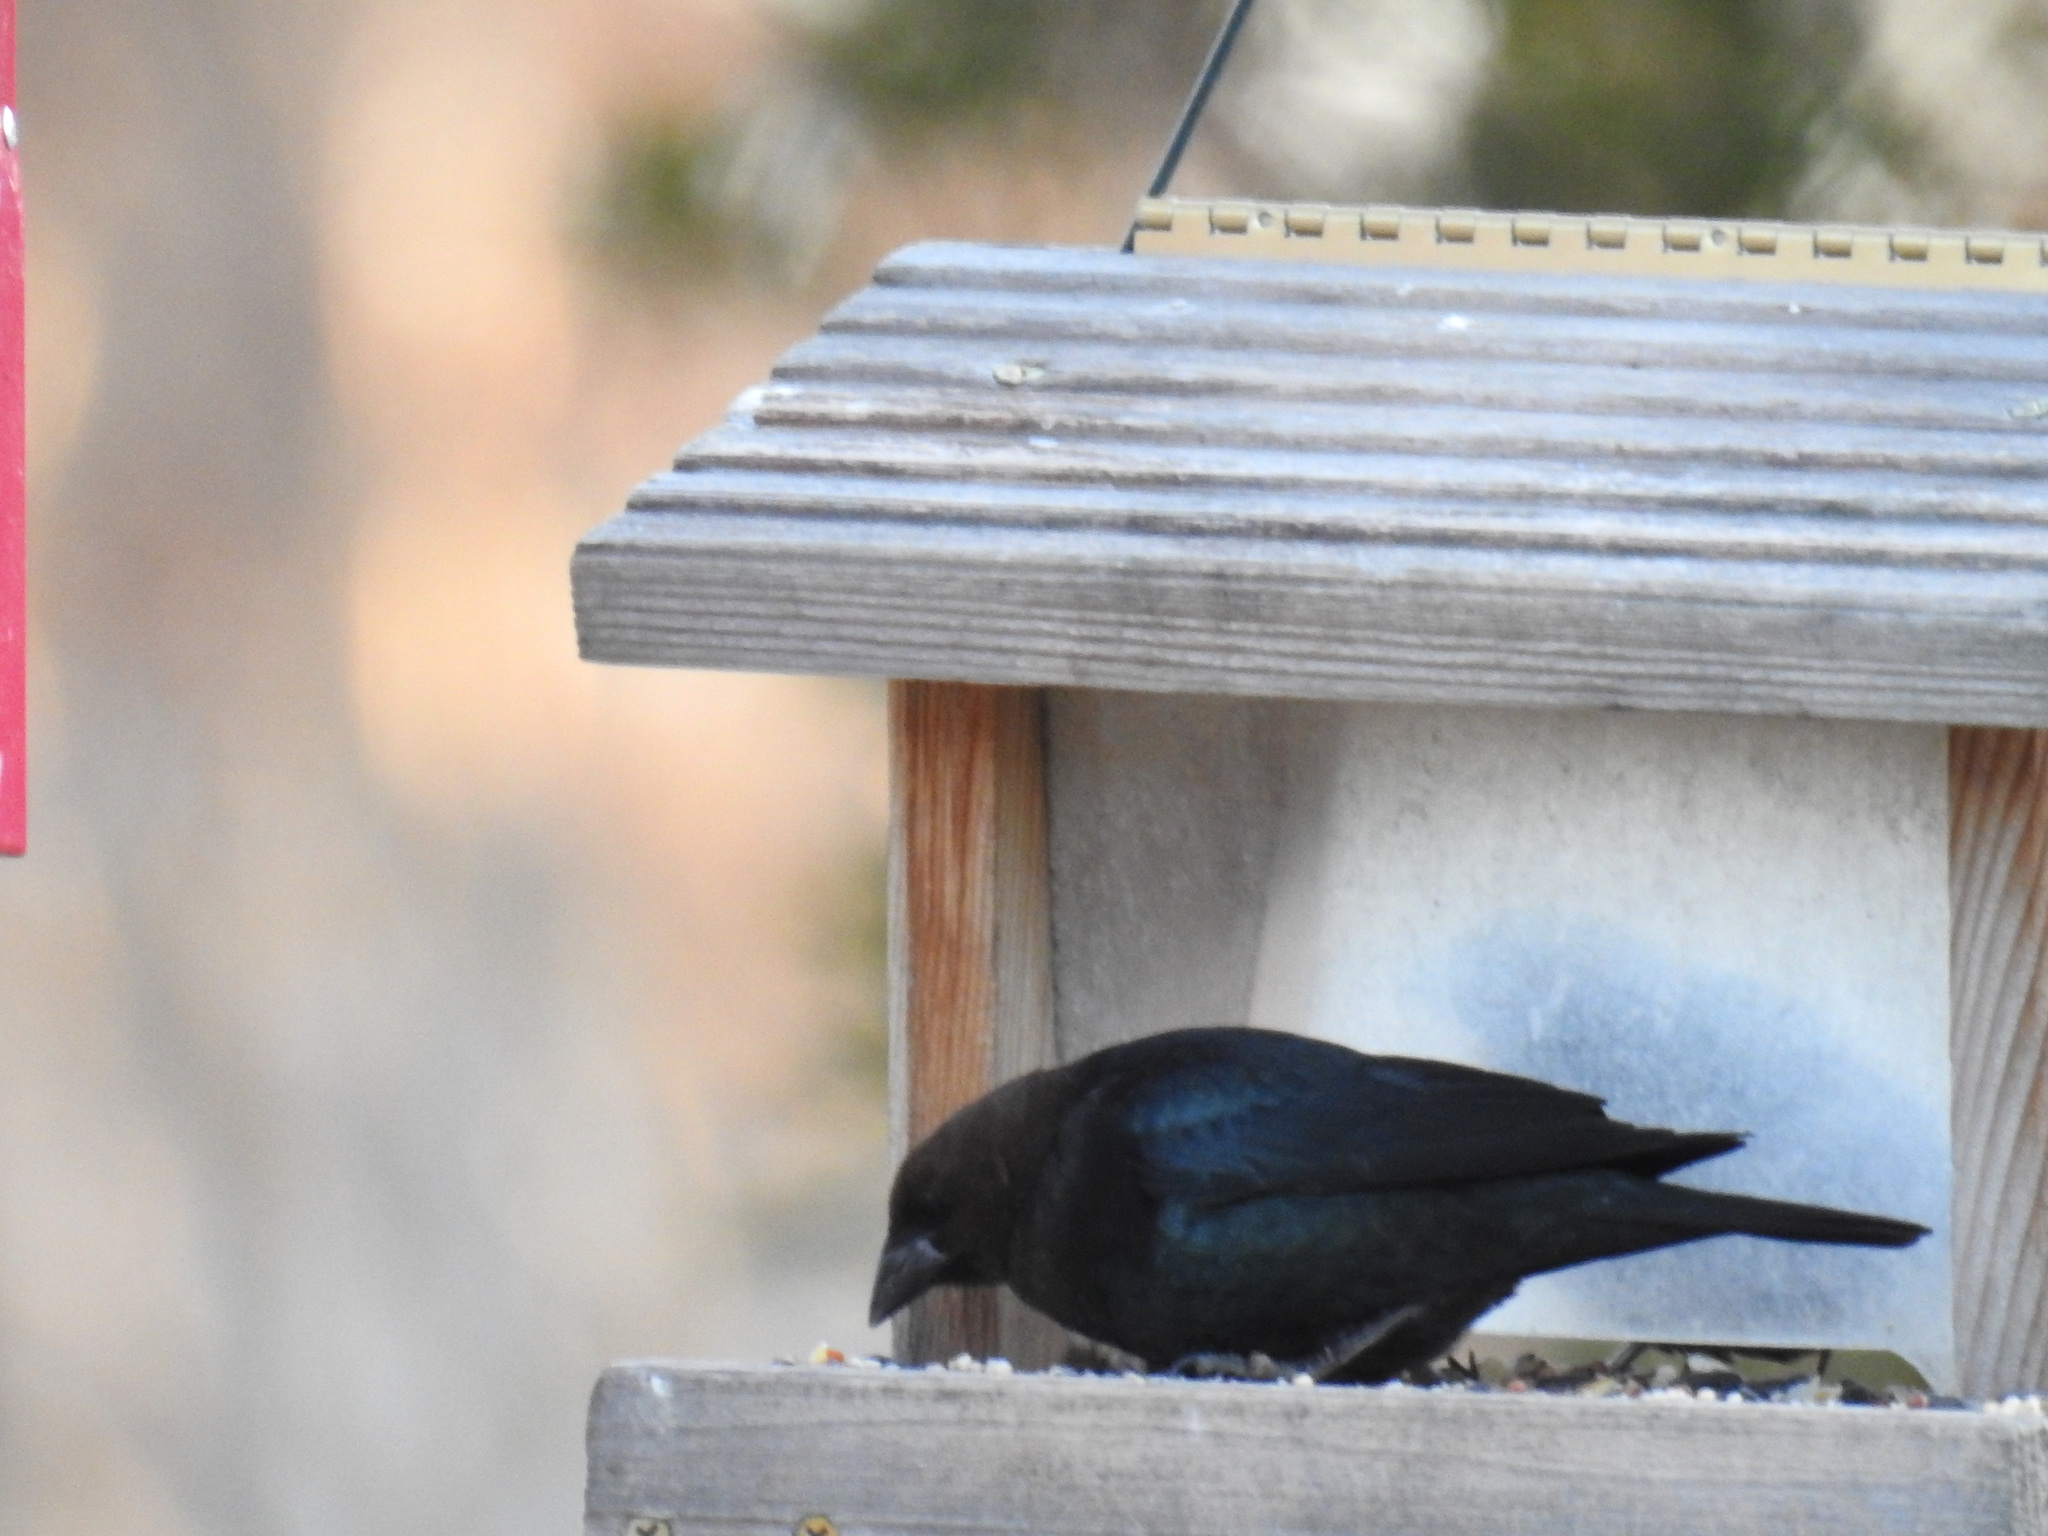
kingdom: Animalia
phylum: Chordata
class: Aves
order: Passeriformes
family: Icteridae
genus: Molothrus
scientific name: Molothrus ater
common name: Brown-headed cowbird
